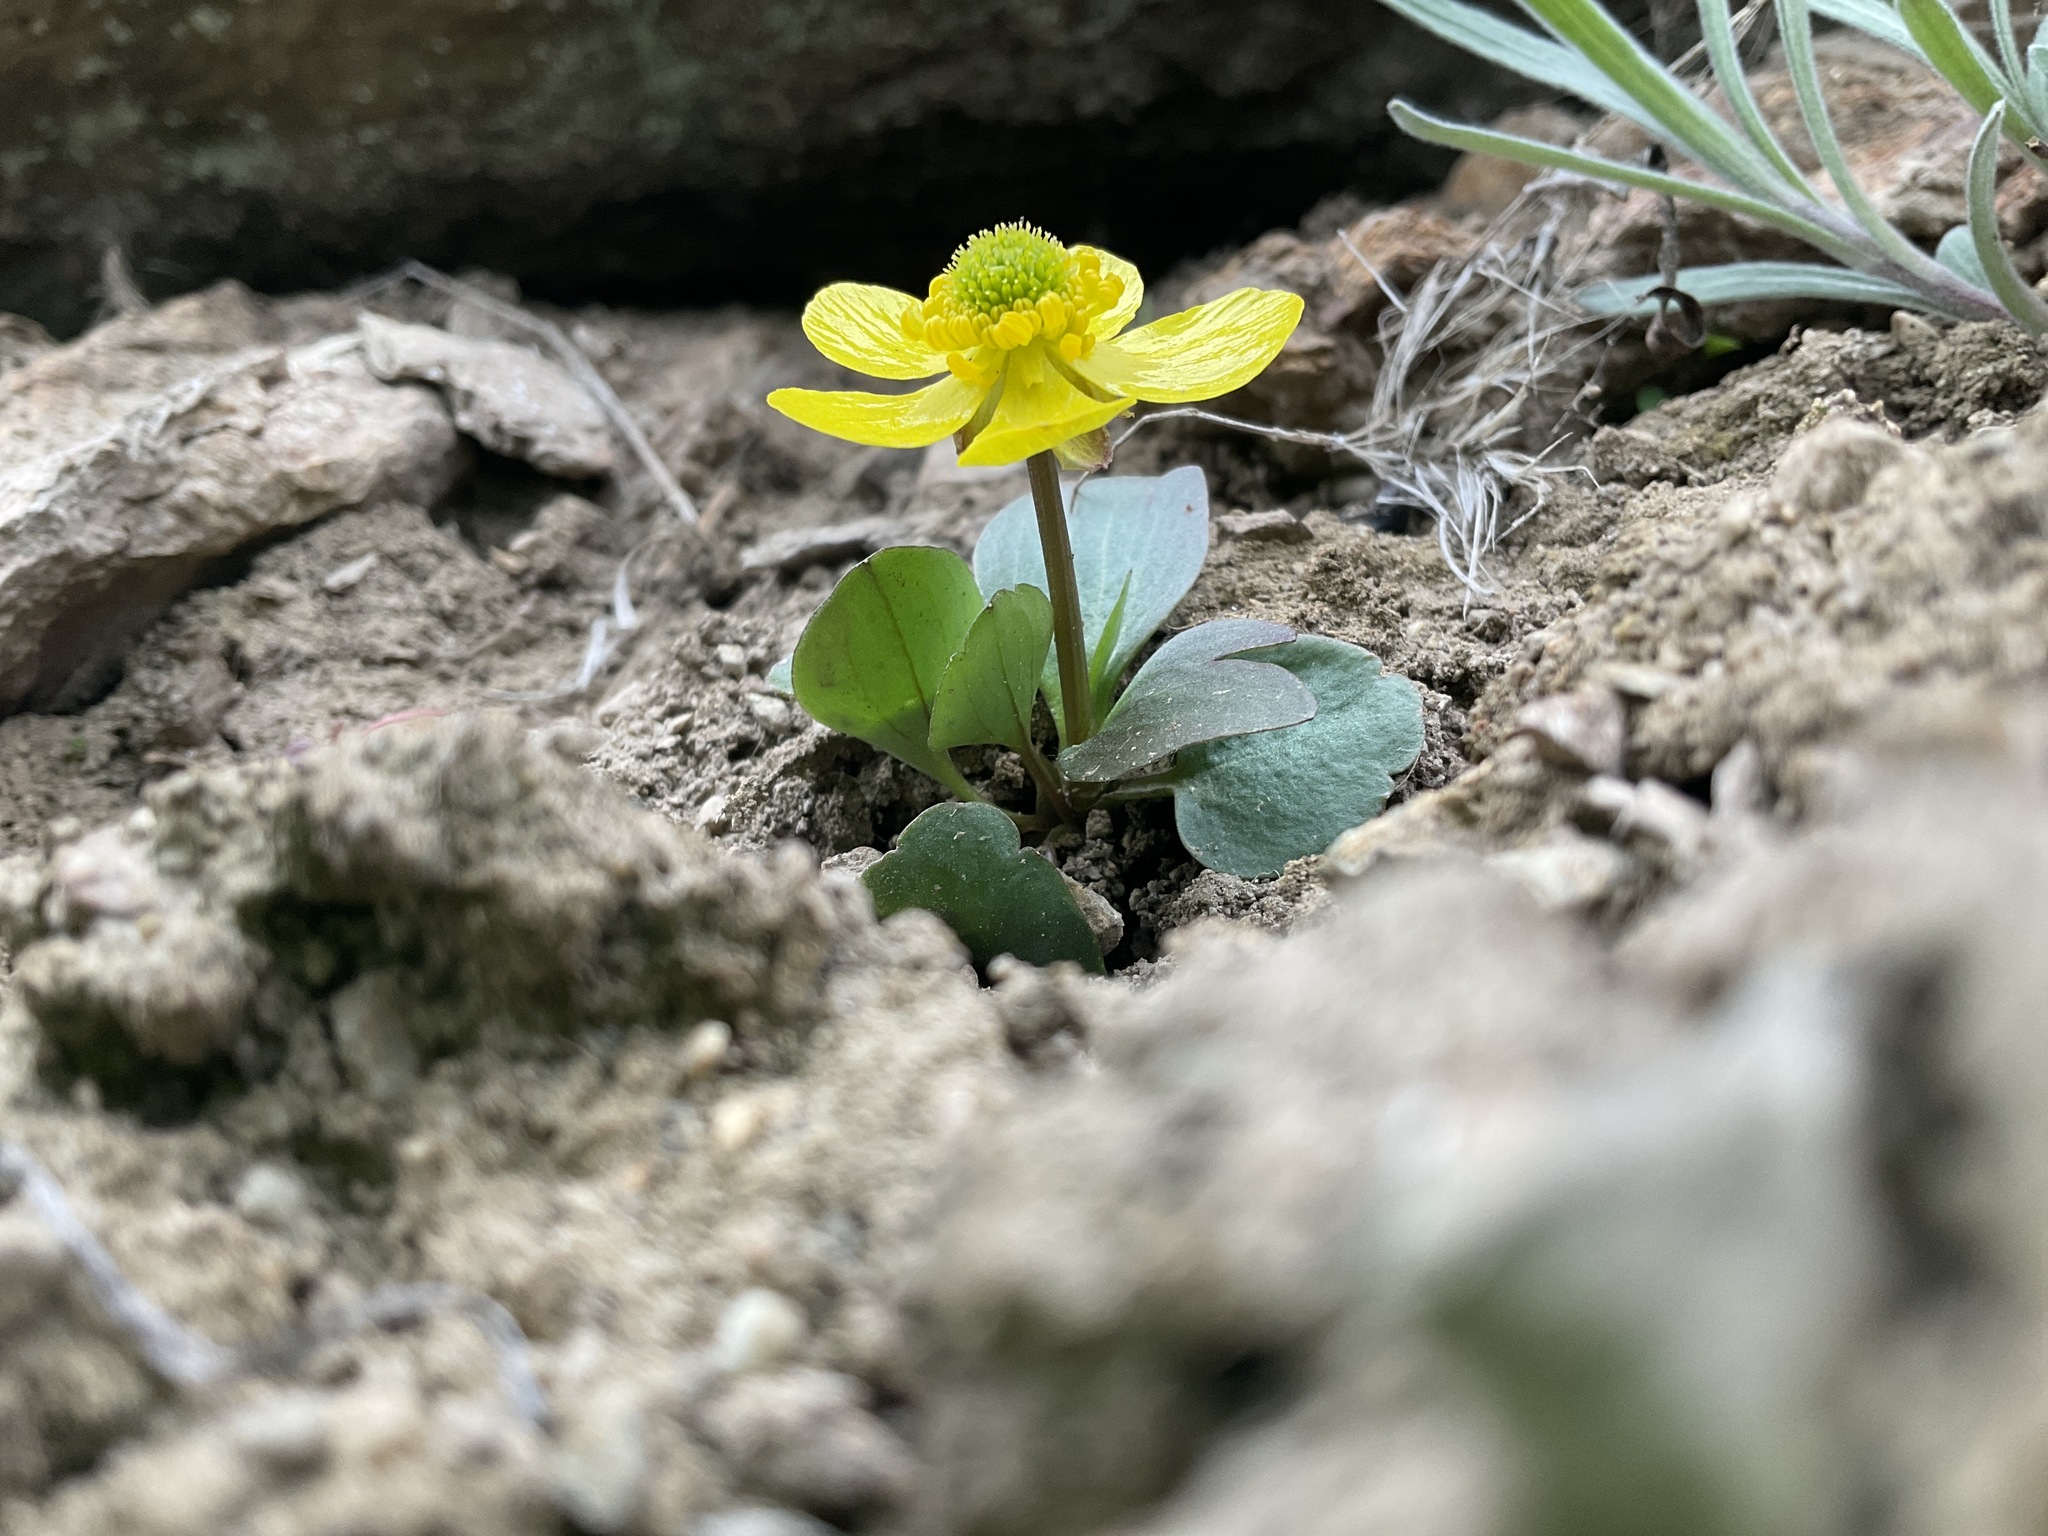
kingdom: Plantae
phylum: Tracheophyta
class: Magnoliopsida
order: Ranunculales
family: Ranunculaceae
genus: Ranunculus
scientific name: Ranunculus glaberrimus
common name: Sagebrush buttercup
